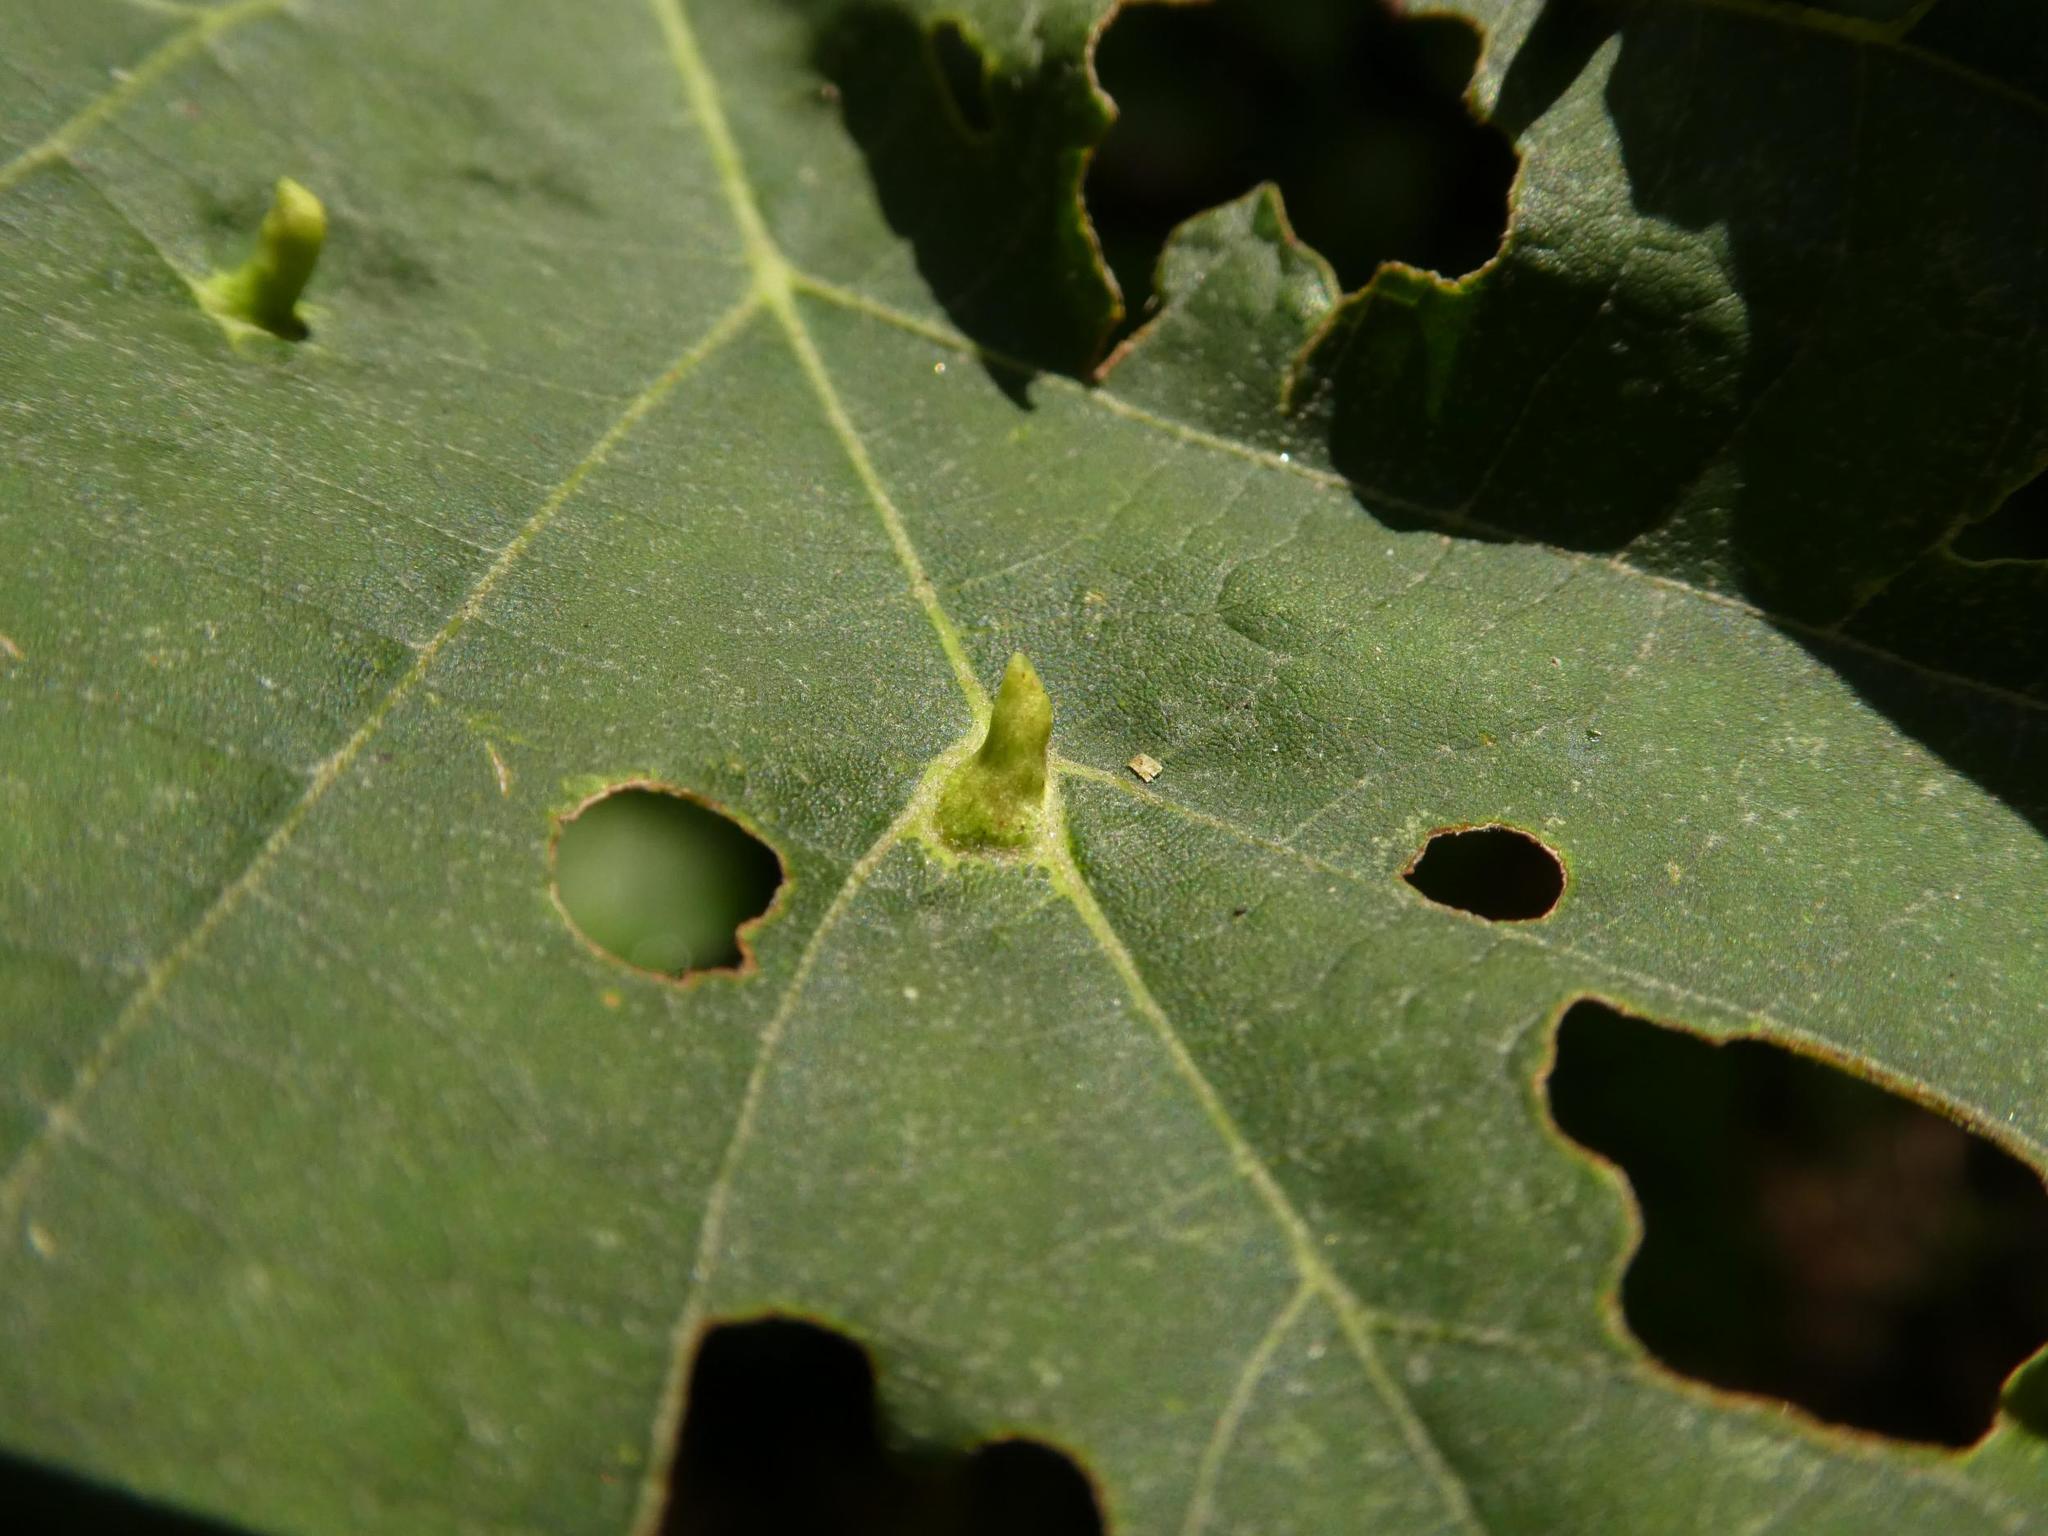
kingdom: Animalia
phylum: Arthropoda
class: Arachnida
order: Trombidiformes
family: Eriophyidae
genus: Eriophyes
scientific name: Eriophyes tiliae
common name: Red nail gall mite
